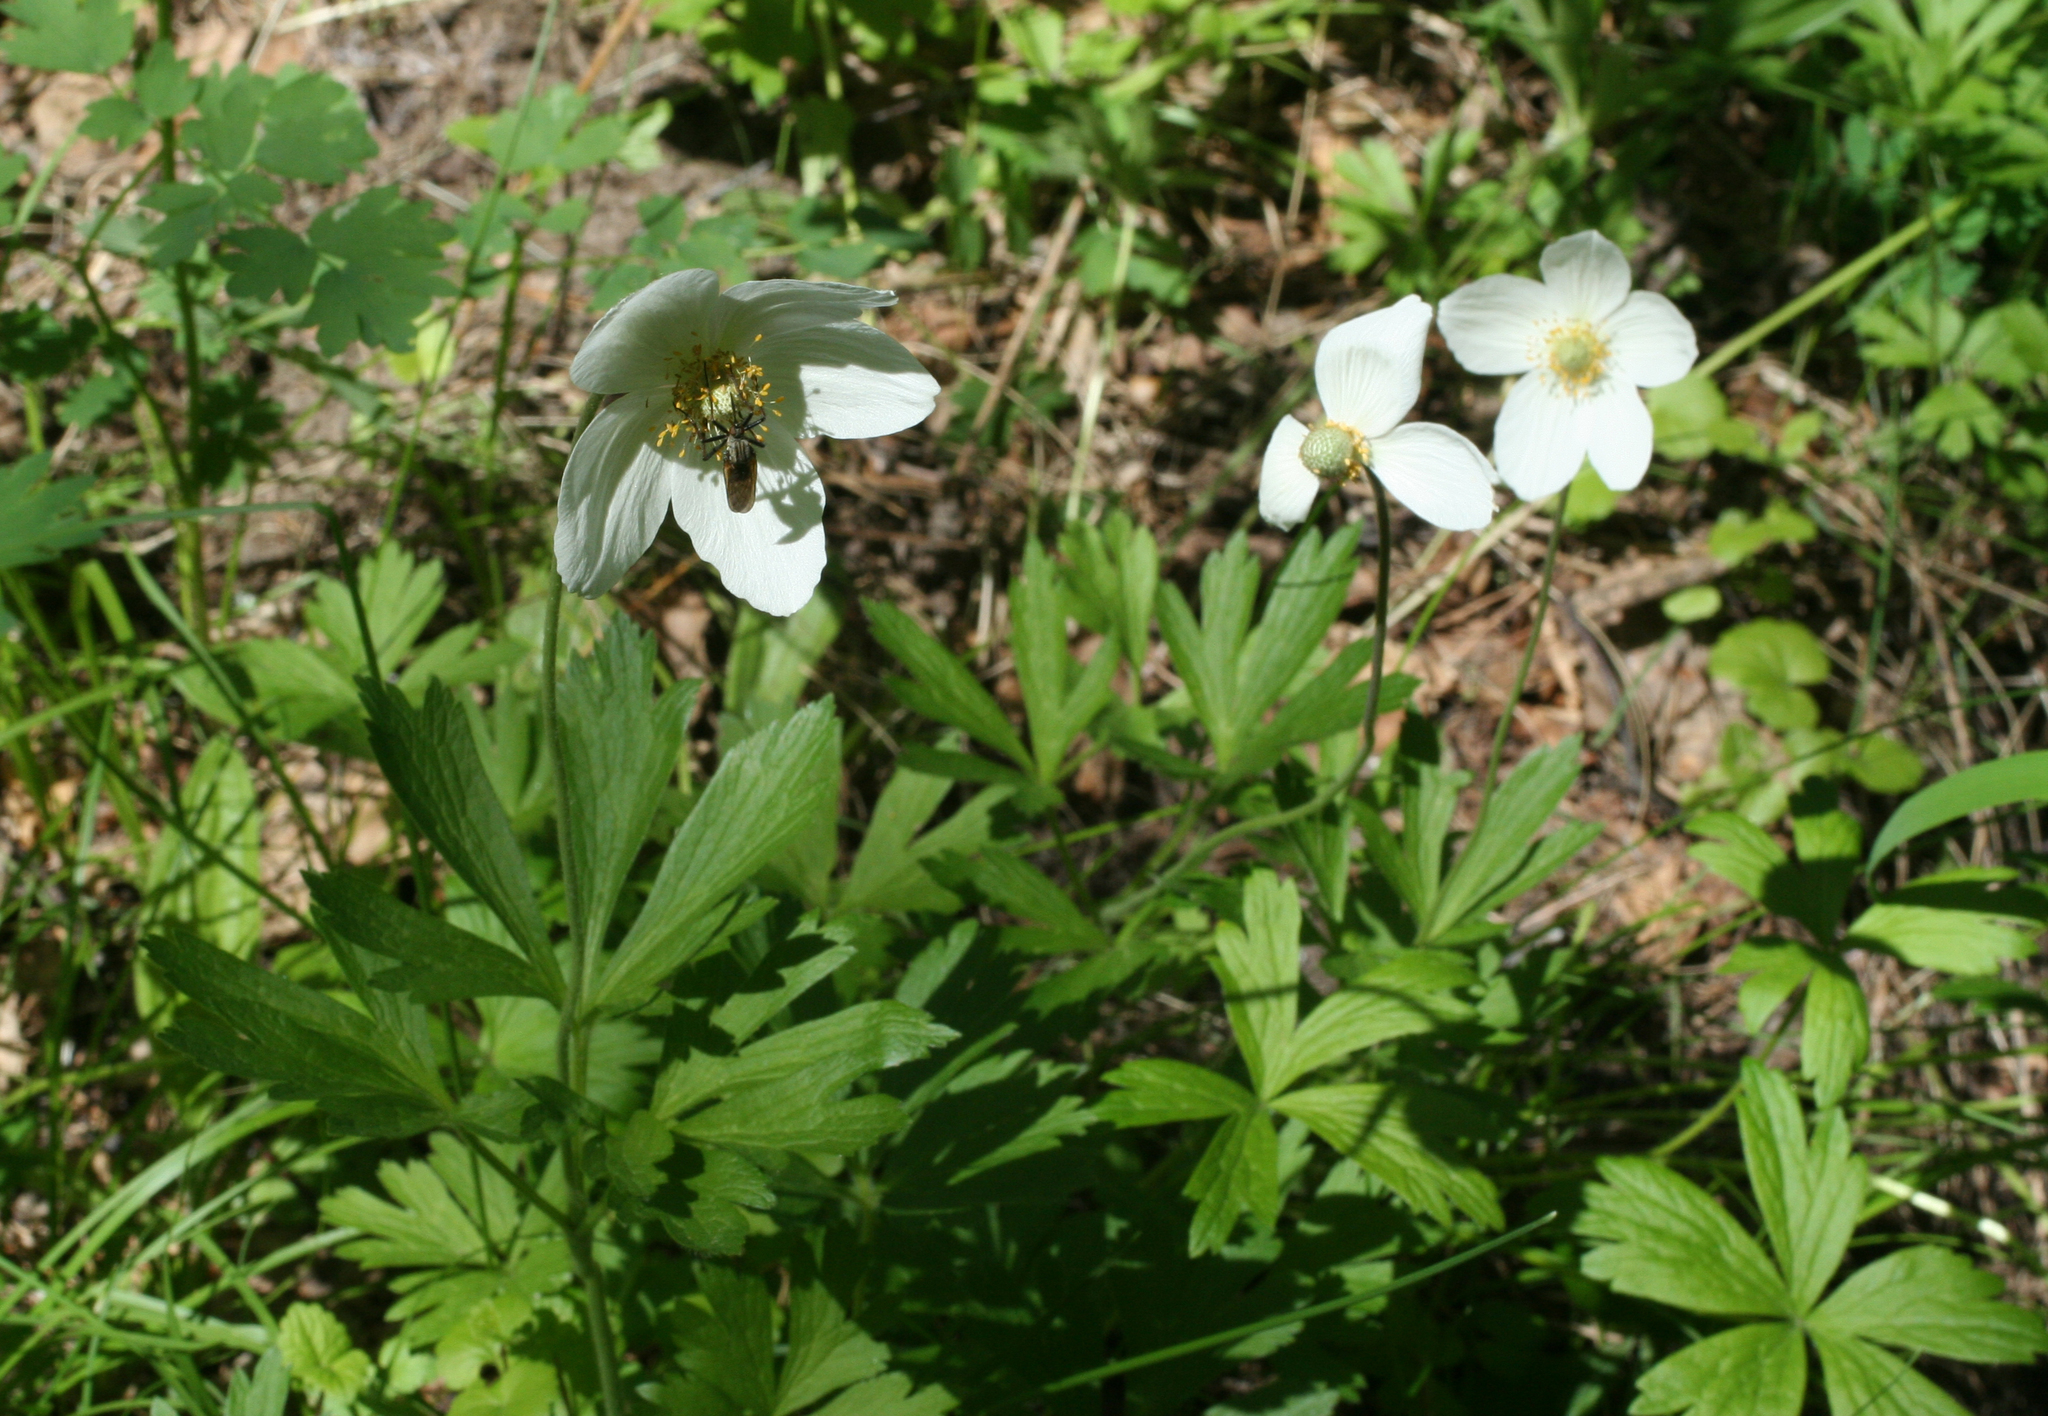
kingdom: Plantae
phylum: Tracheophyta
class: Magnoliopsida
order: Ranunculales
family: Ranunculaceae
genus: Anemone
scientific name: Anemone sylvestris
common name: Snowdrop anemone
